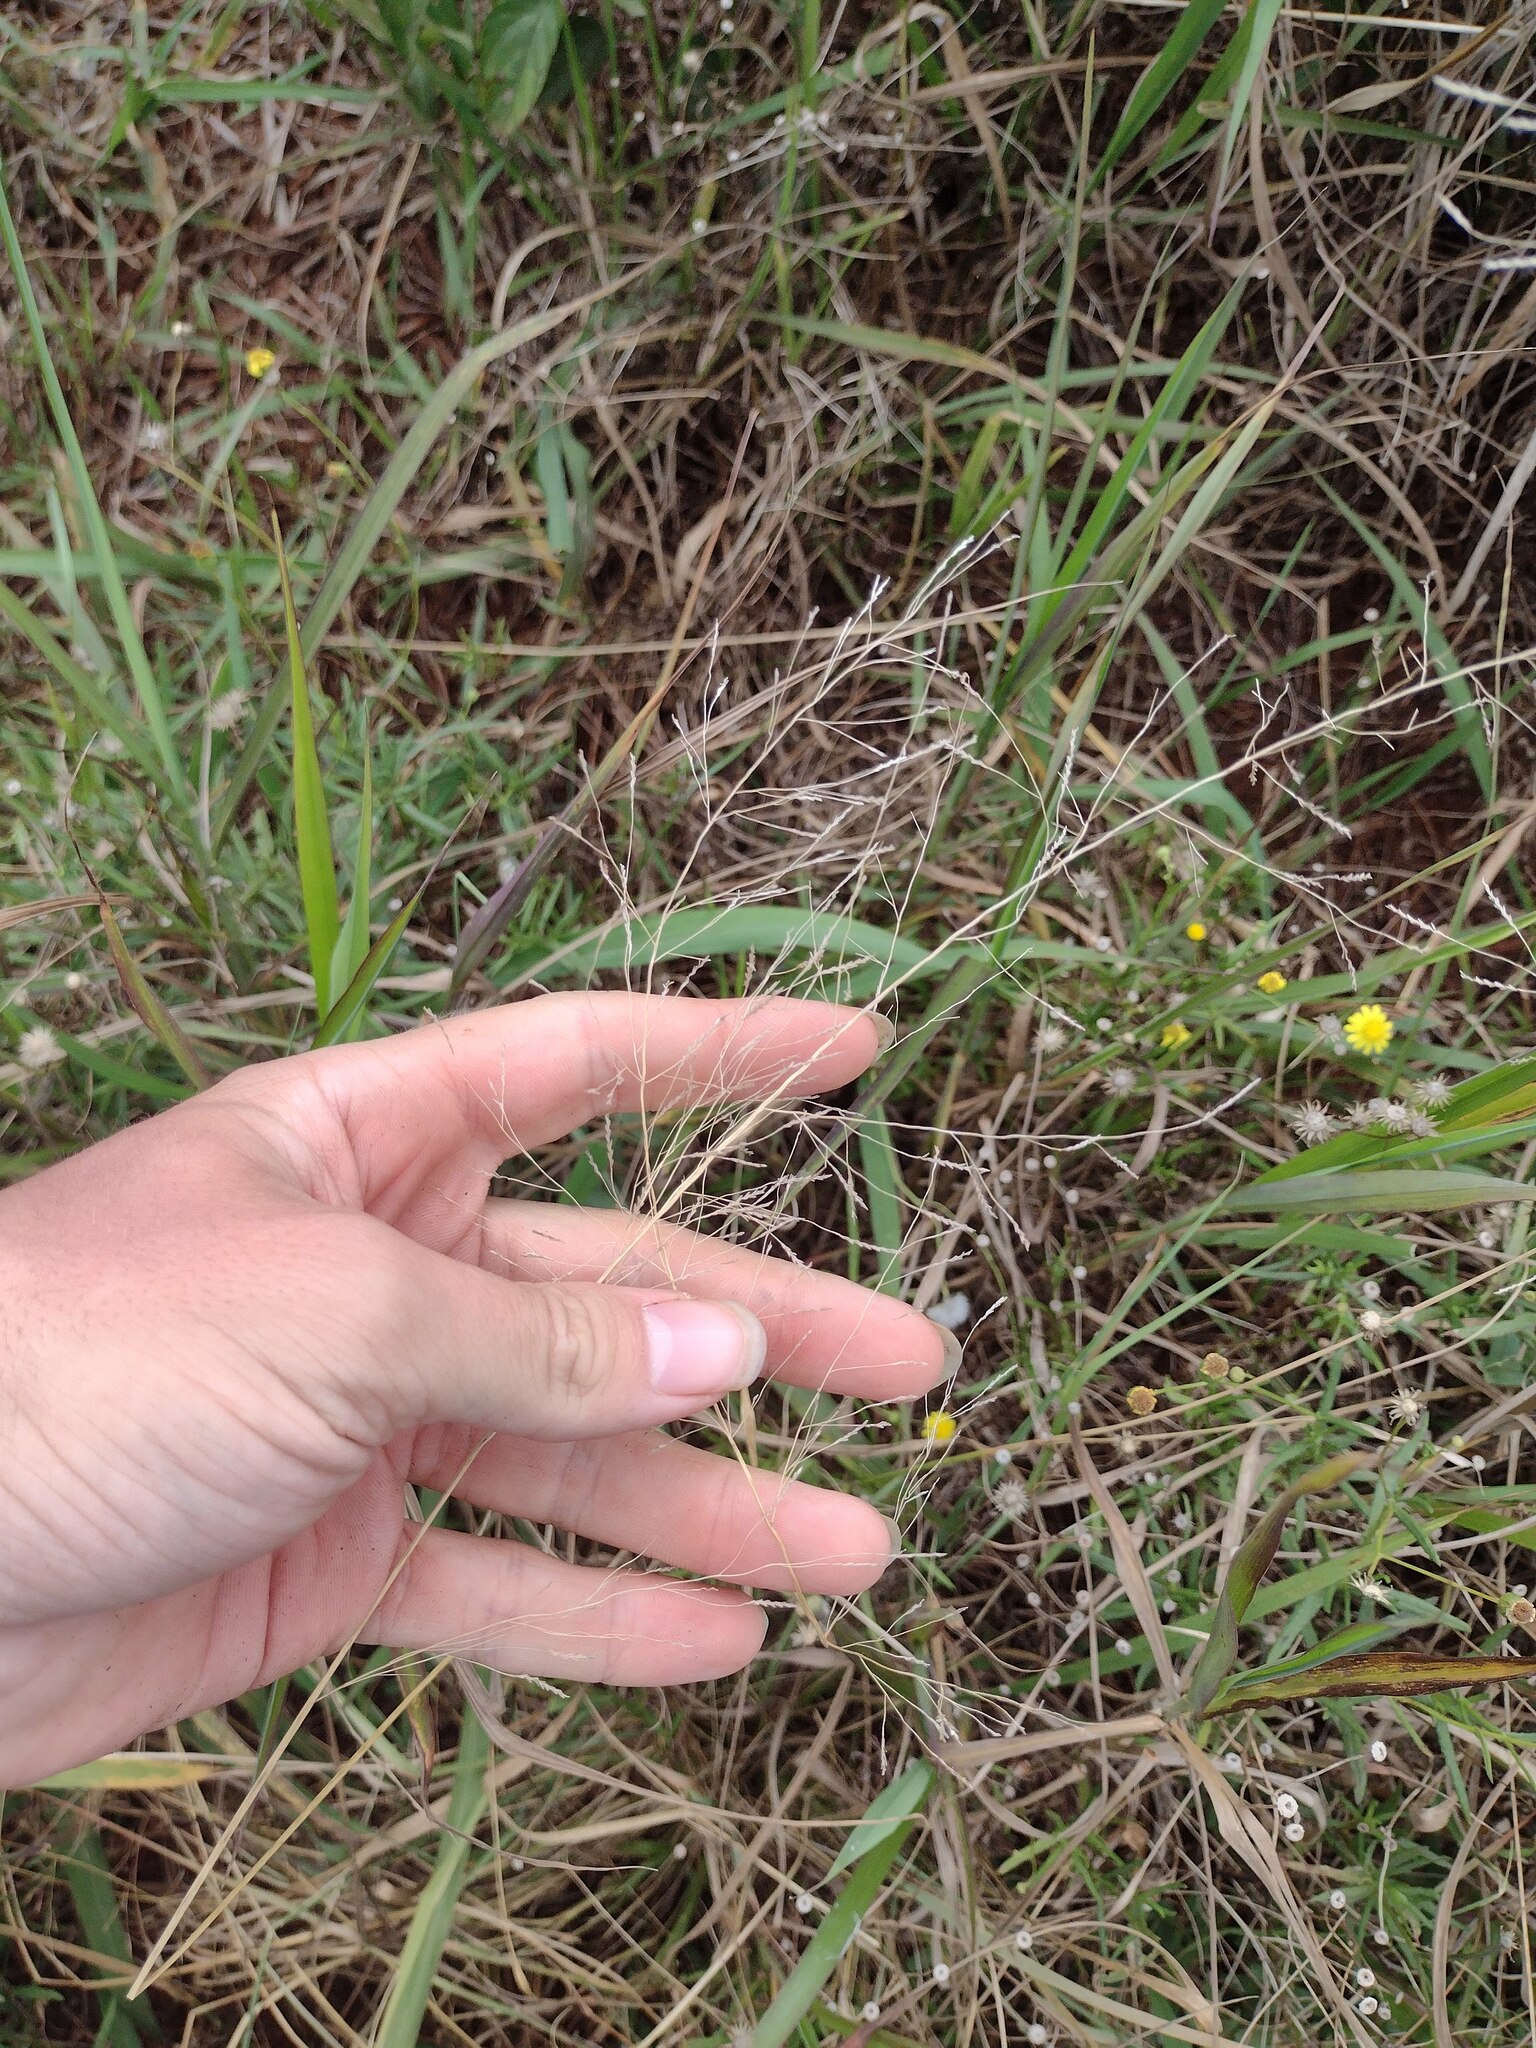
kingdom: Plantae
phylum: Tracheophyta
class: Liliopsida
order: Poales
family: Poaceae
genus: Eragrostis
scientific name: Eragrostis tenuifolia
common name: Elastic grass
